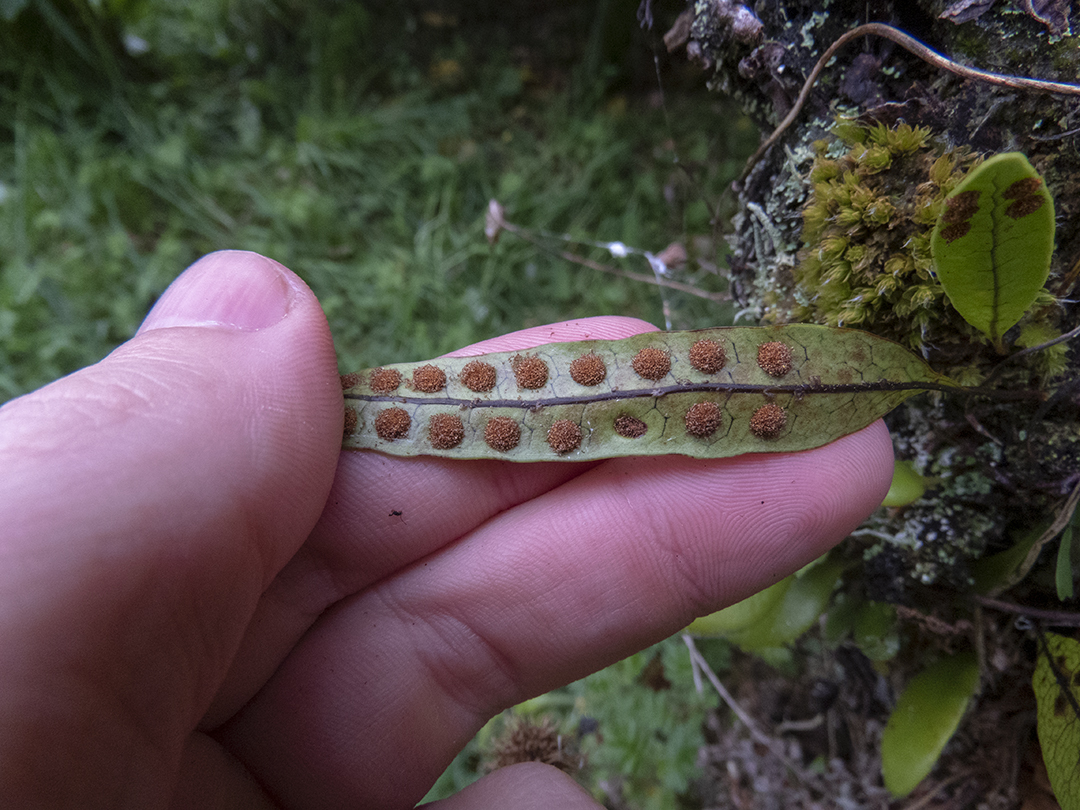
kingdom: Plantae
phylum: Tracheophyta
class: Polypodiopsida
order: Polypodiales
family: Polypodiaceae
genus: Lecanopteris
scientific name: Lecanopteris pustulata
